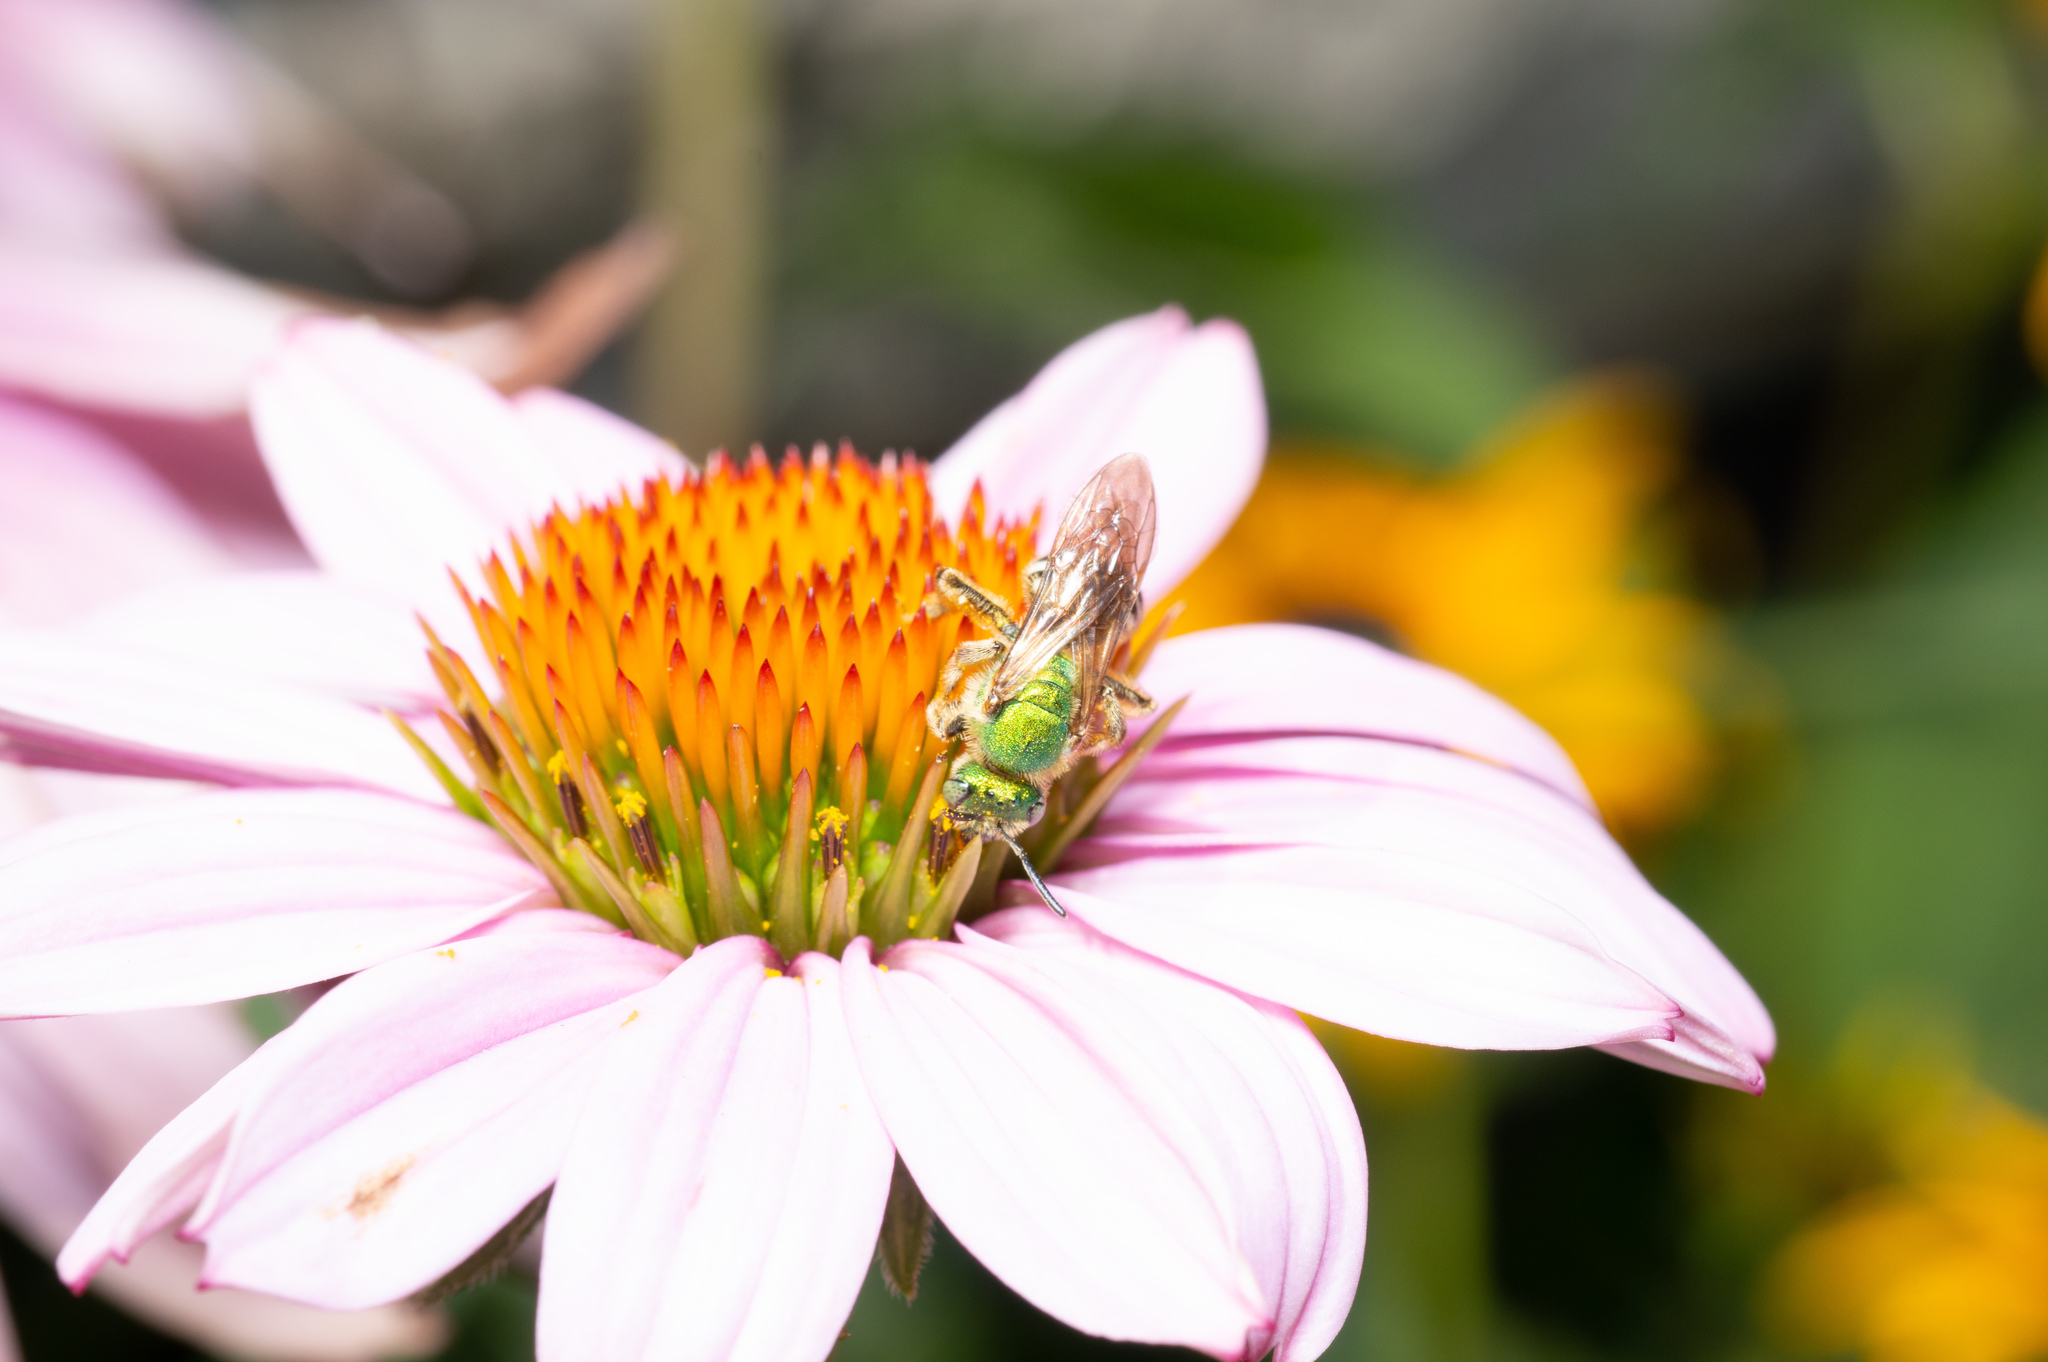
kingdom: Animalia
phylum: Arthropoda
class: Insecta
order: Hymenoptera
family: Halictidae
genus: Agapostemon
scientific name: Agapostemon virescens
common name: Bicolored striped sweat bee
